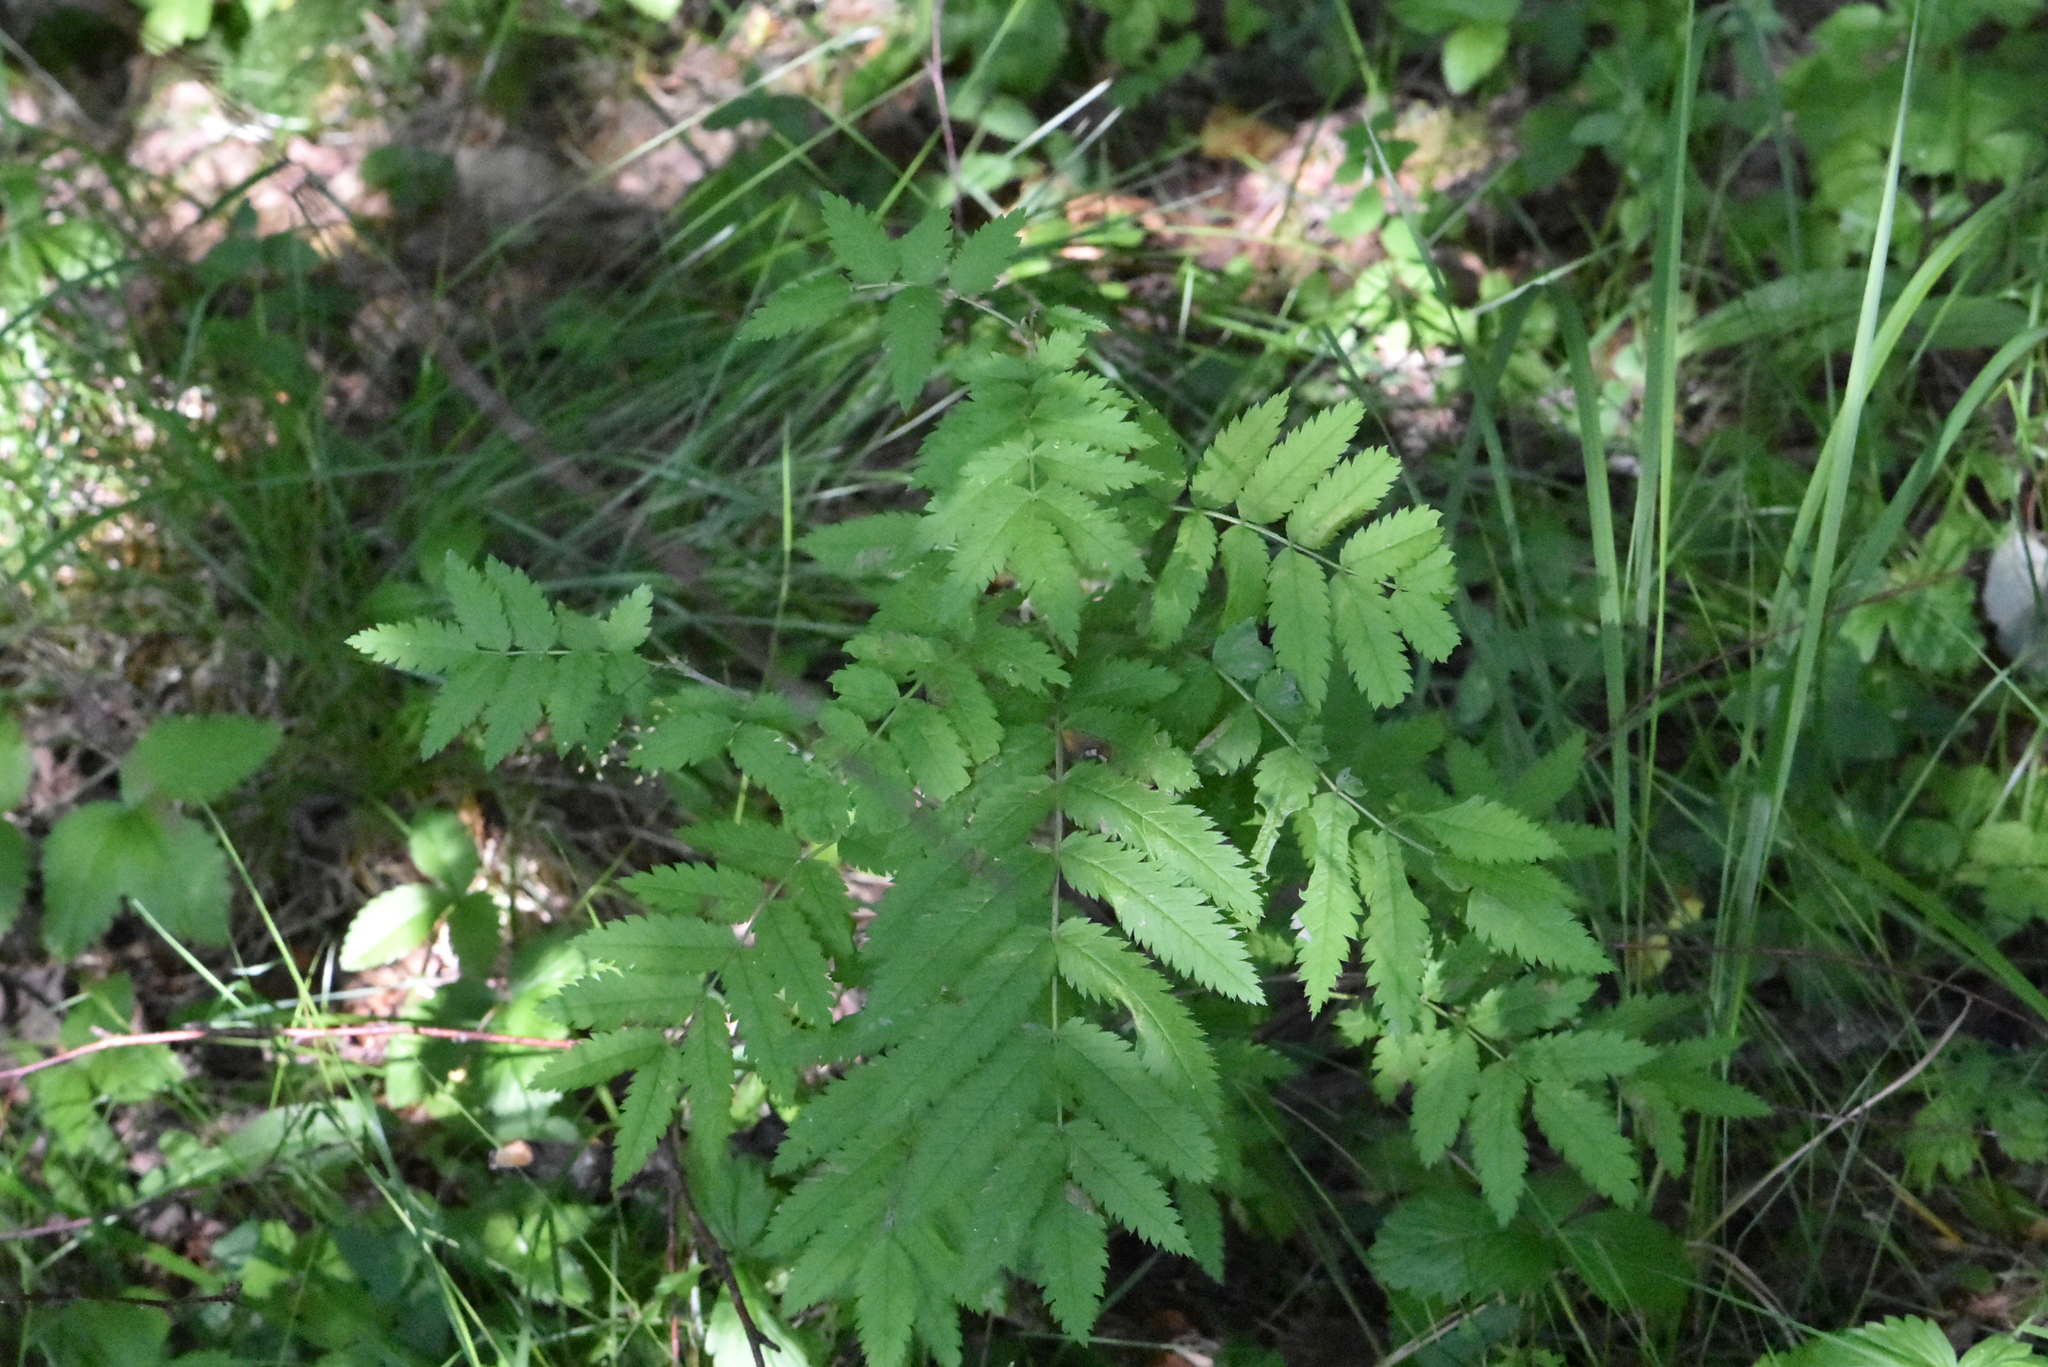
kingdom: Plantae
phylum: Tracheophyta
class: Magnoliopsida
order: Rosales
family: Rosaceae
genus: Sorbus
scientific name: Sorbus aucuparia
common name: Rowan
